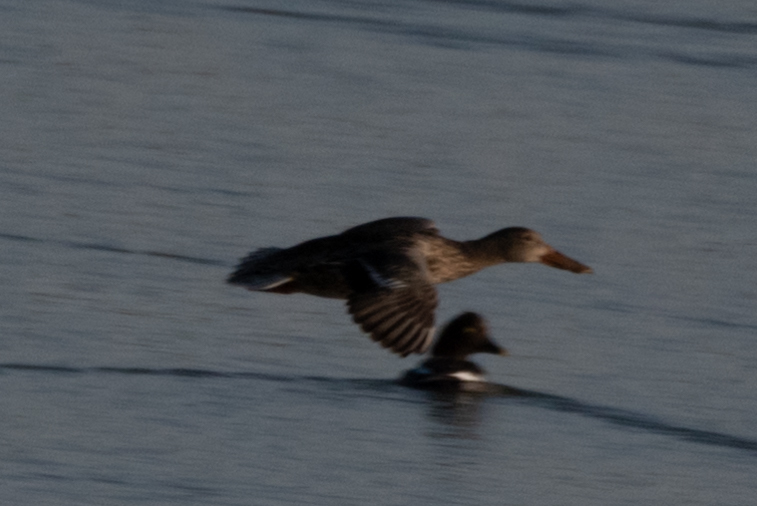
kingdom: Animalia
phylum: Chordata
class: Aves
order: Anseriformes
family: Anatidae
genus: Spatula
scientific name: Spatula clypeata
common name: Northern shoveler
